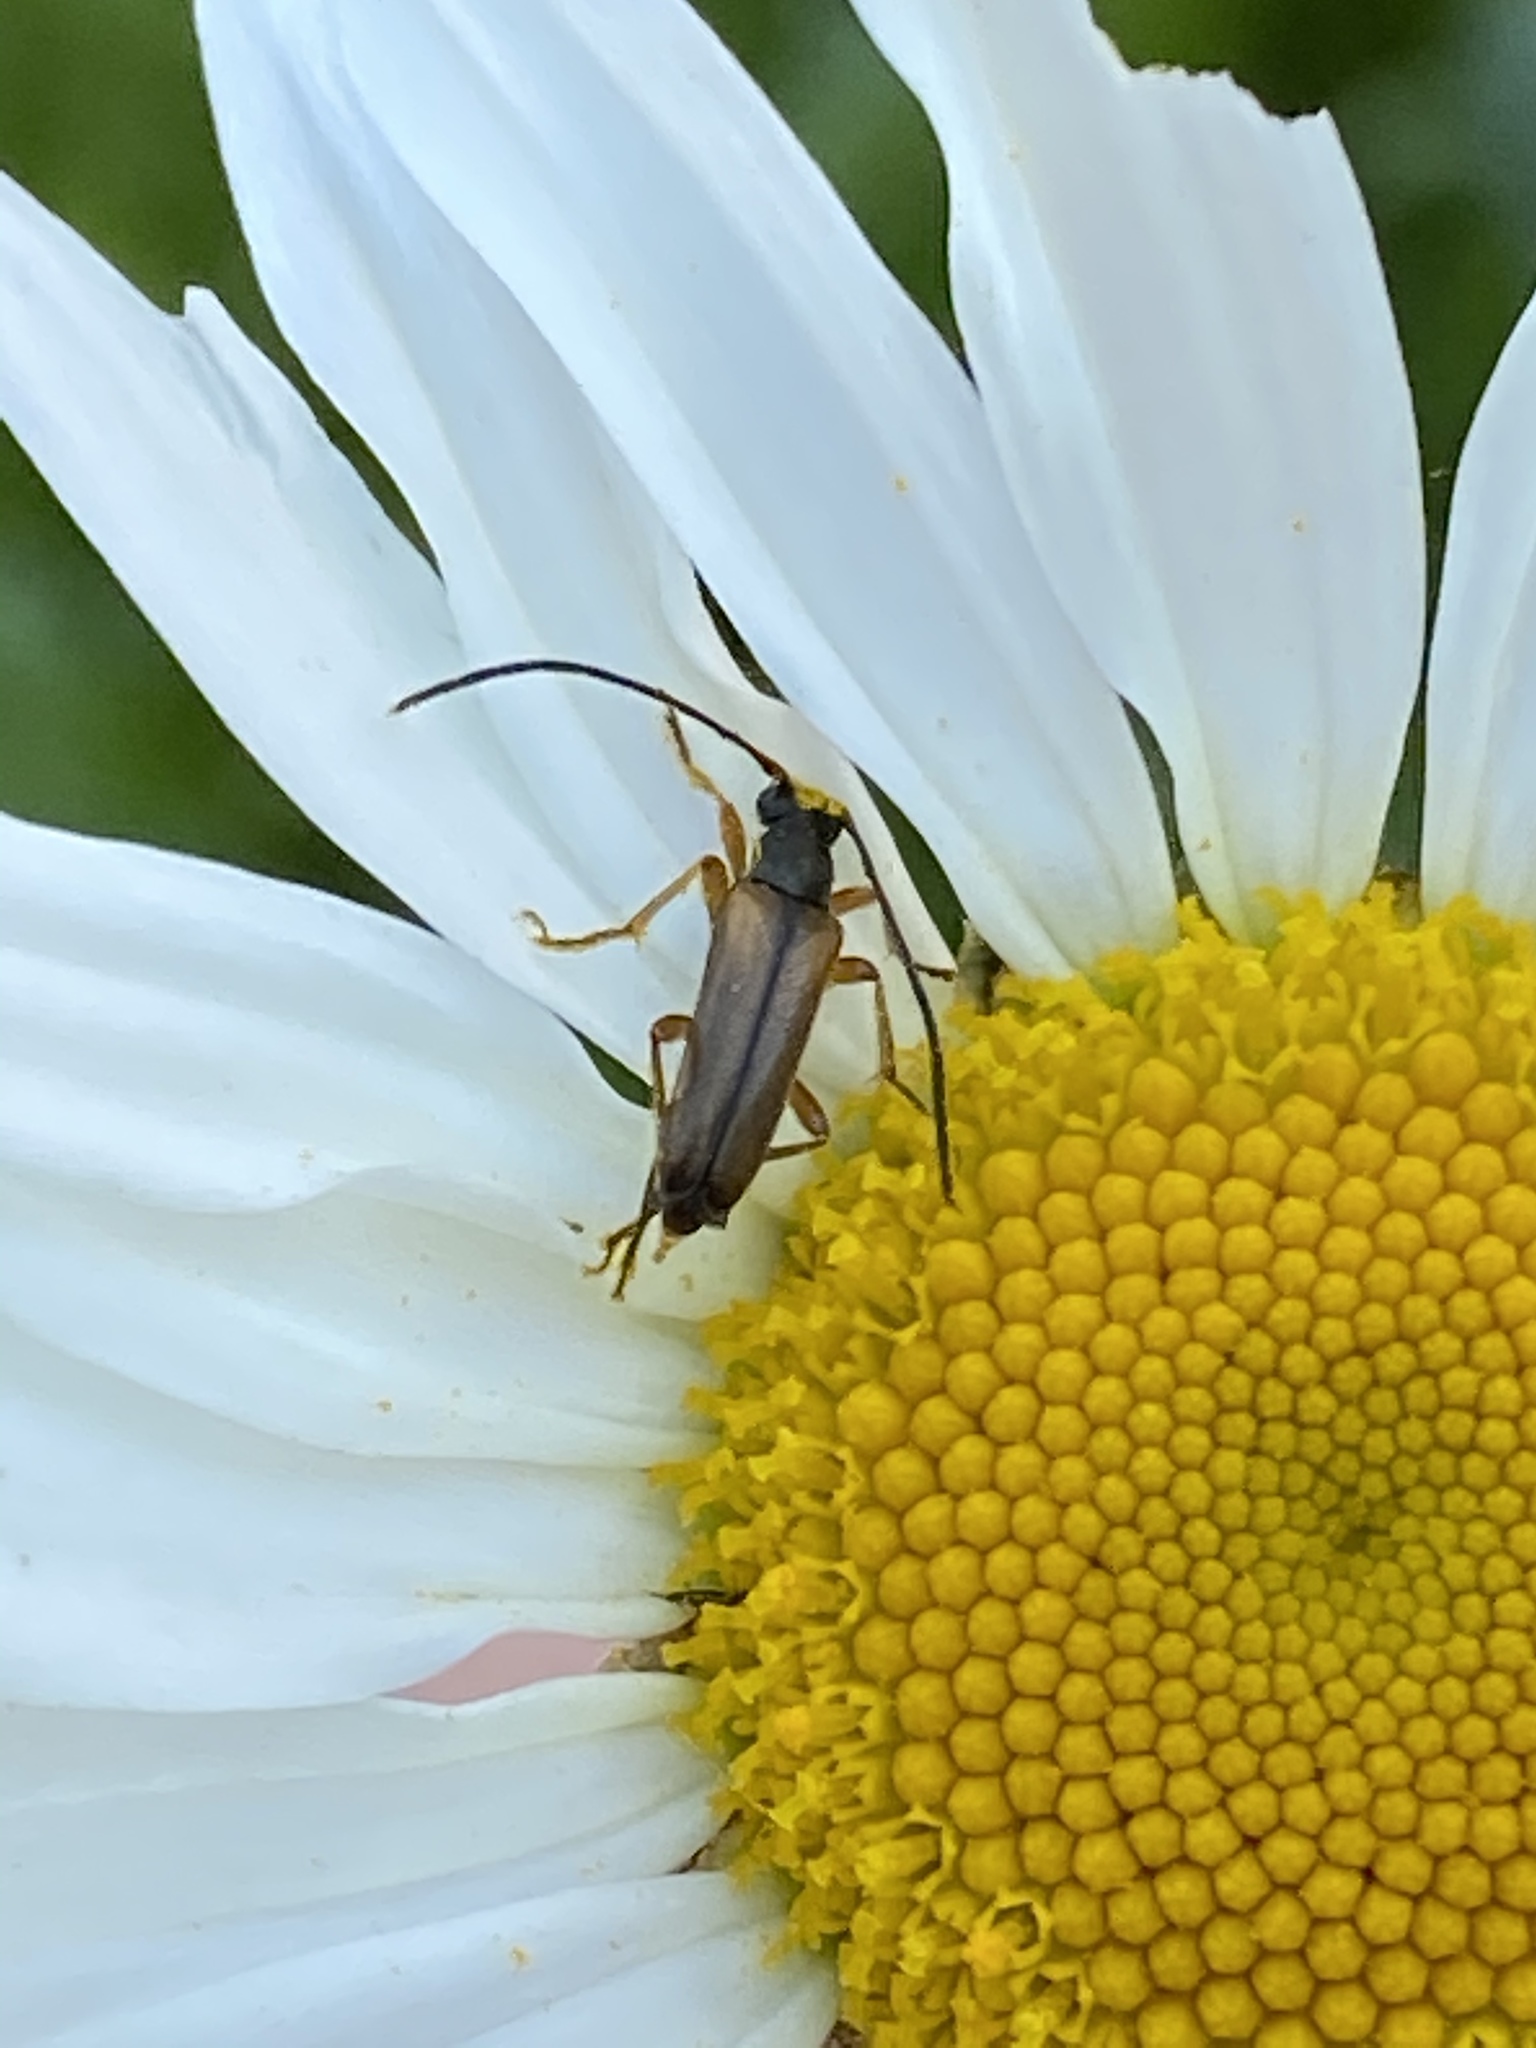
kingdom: Animalia
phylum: Arthropoda
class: Insecta
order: Coleoptera
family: Cerambycidae
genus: Alosterna
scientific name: Alosterna tabacicolor
